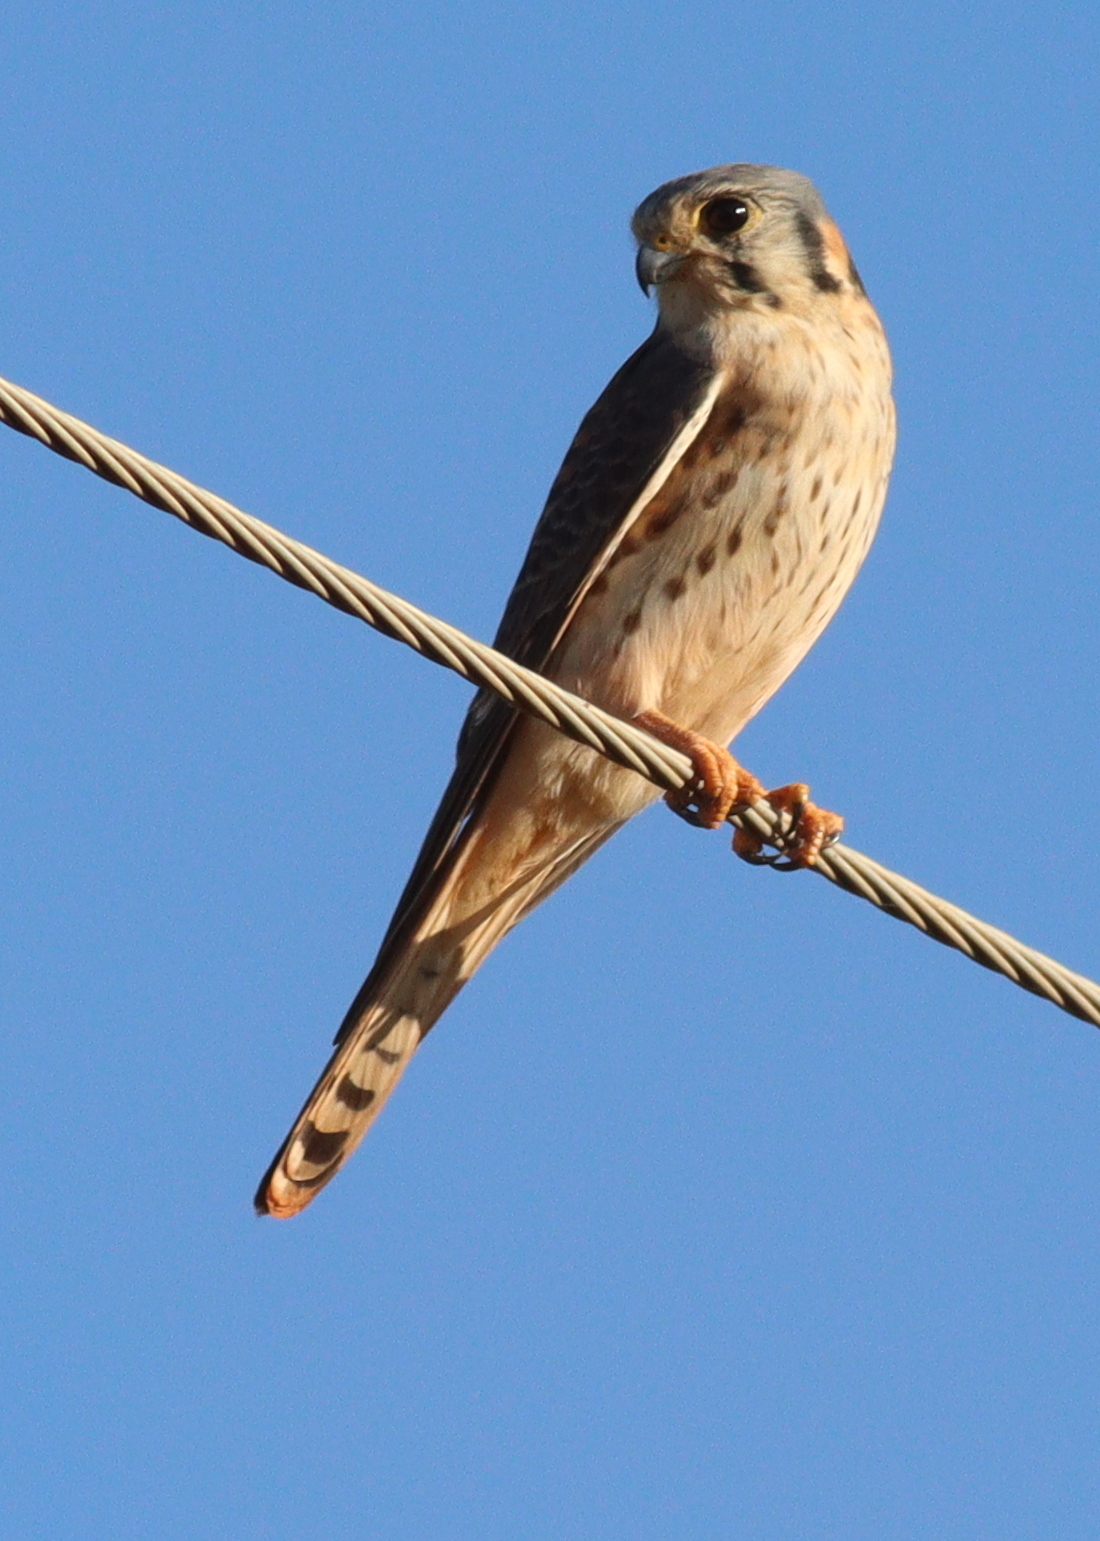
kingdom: Animalia
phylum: Chordata
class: Aves
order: Falconiformes
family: Falconidae
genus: Falco
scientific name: Falco sparverius
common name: American kestrel
